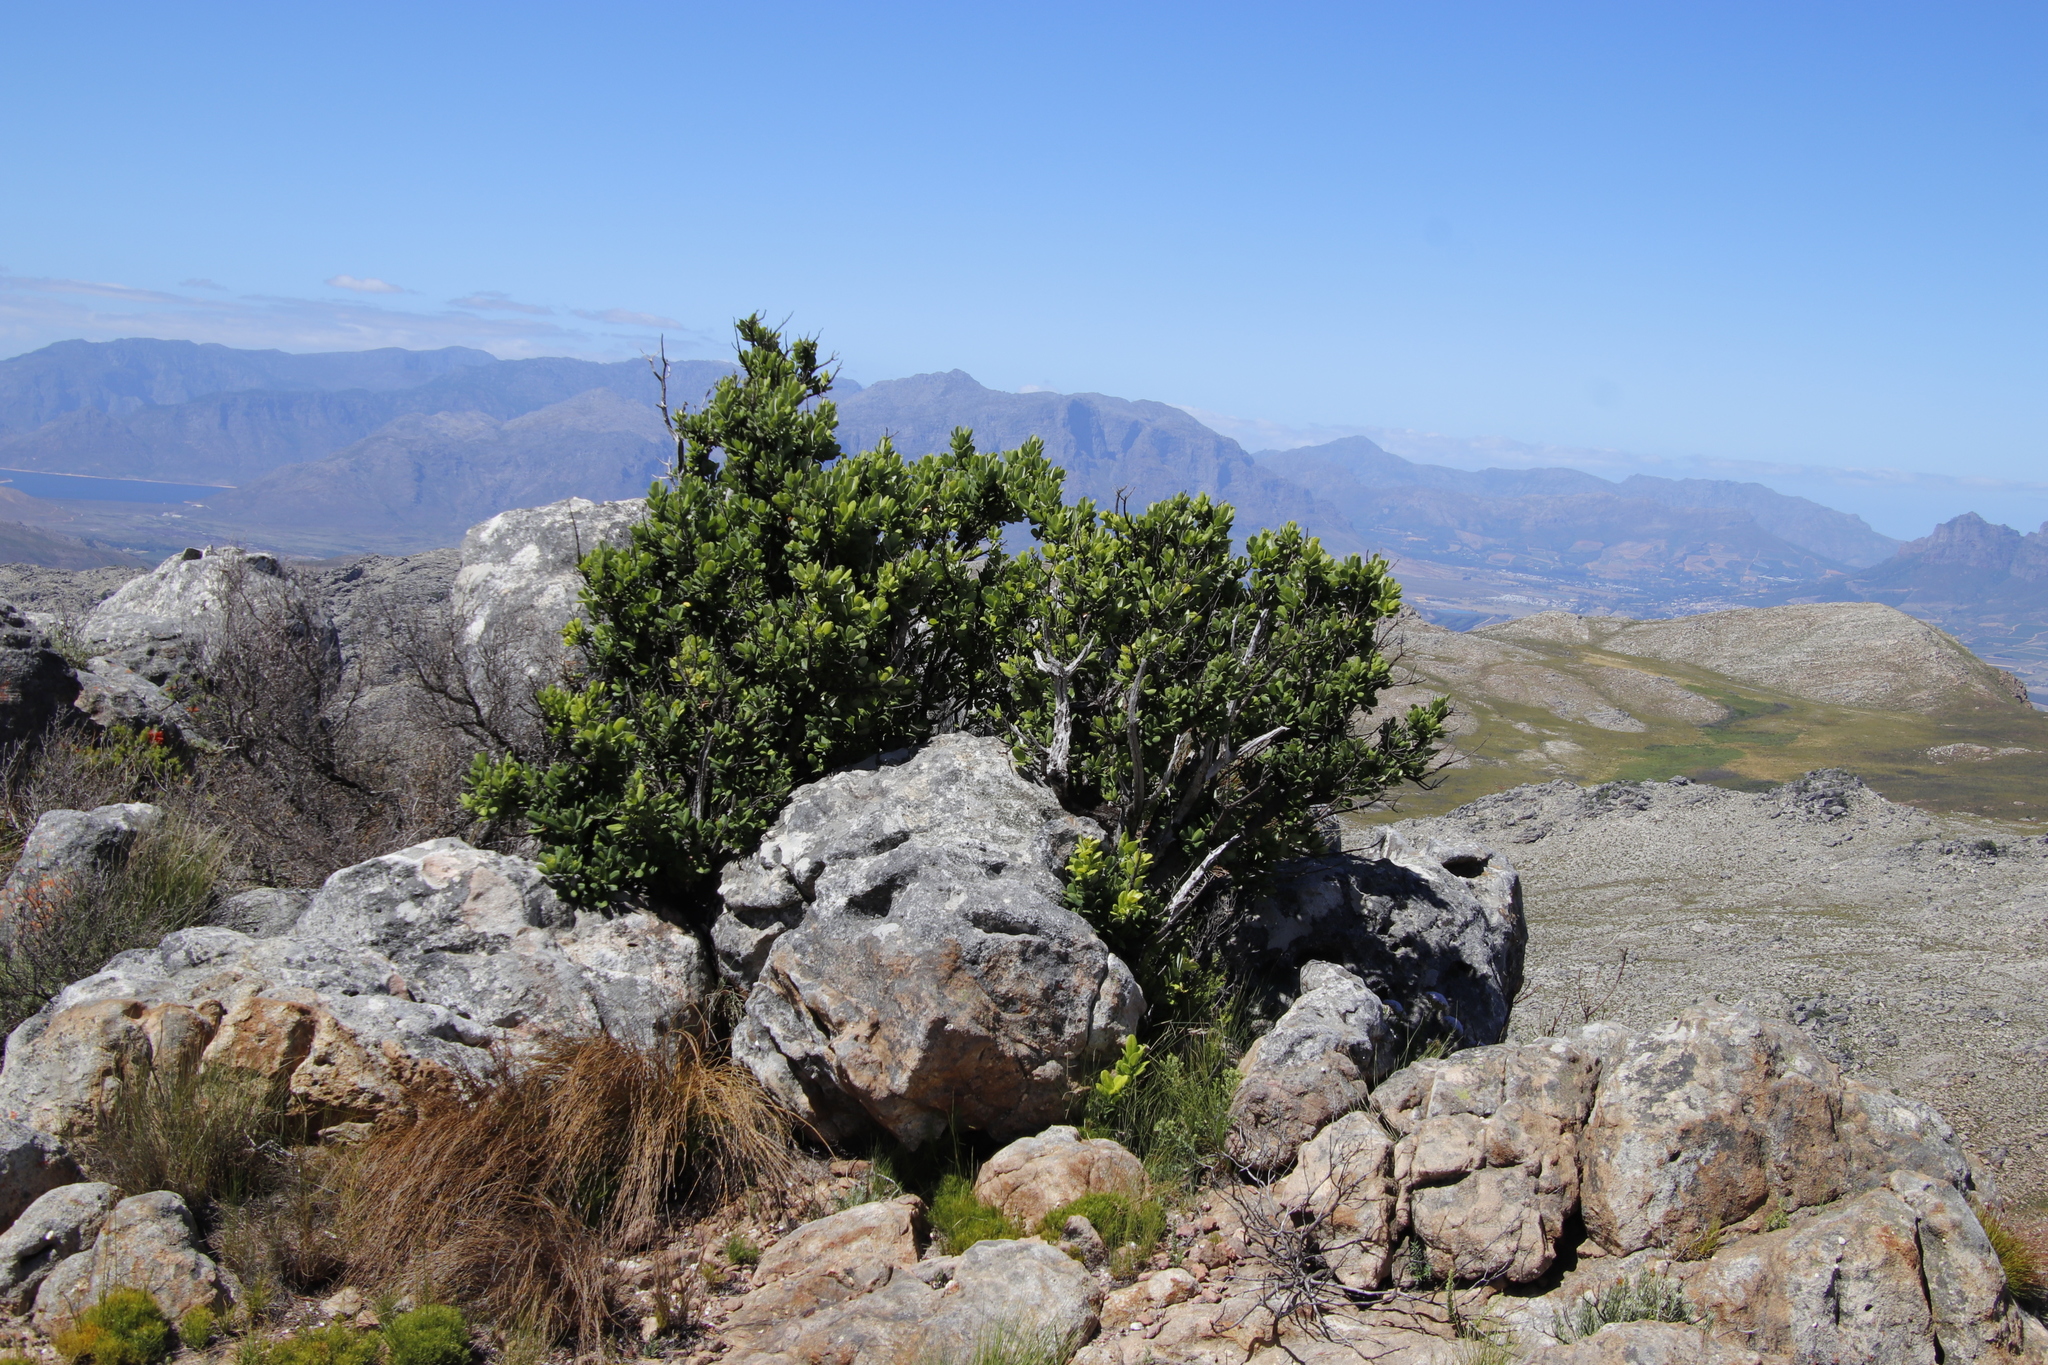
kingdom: Plantae
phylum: Tracheophyta
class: Magnoliopsida
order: Sapindales
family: Anacardiaceae
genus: Heeria
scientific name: Heeria argentea
